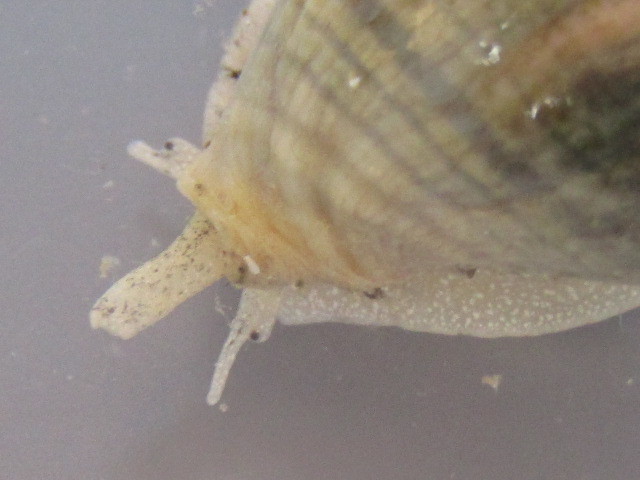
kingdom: Animalia
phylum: Mollusca
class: Gastropoda
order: Neogastropoda
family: Cominellidae
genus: Cominella
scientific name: Cominella glandiformis
